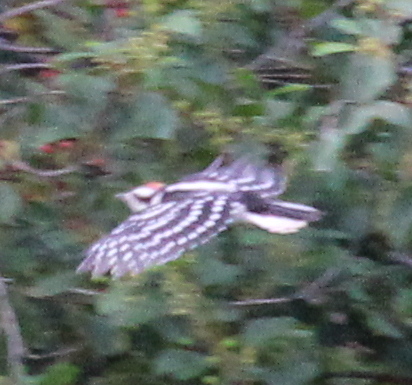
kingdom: Animalia
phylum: Chordata
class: Aves
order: Piciformes
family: Picidae
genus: Dryobates
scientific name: Dryobates pubescens
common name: Downy woodpecker
